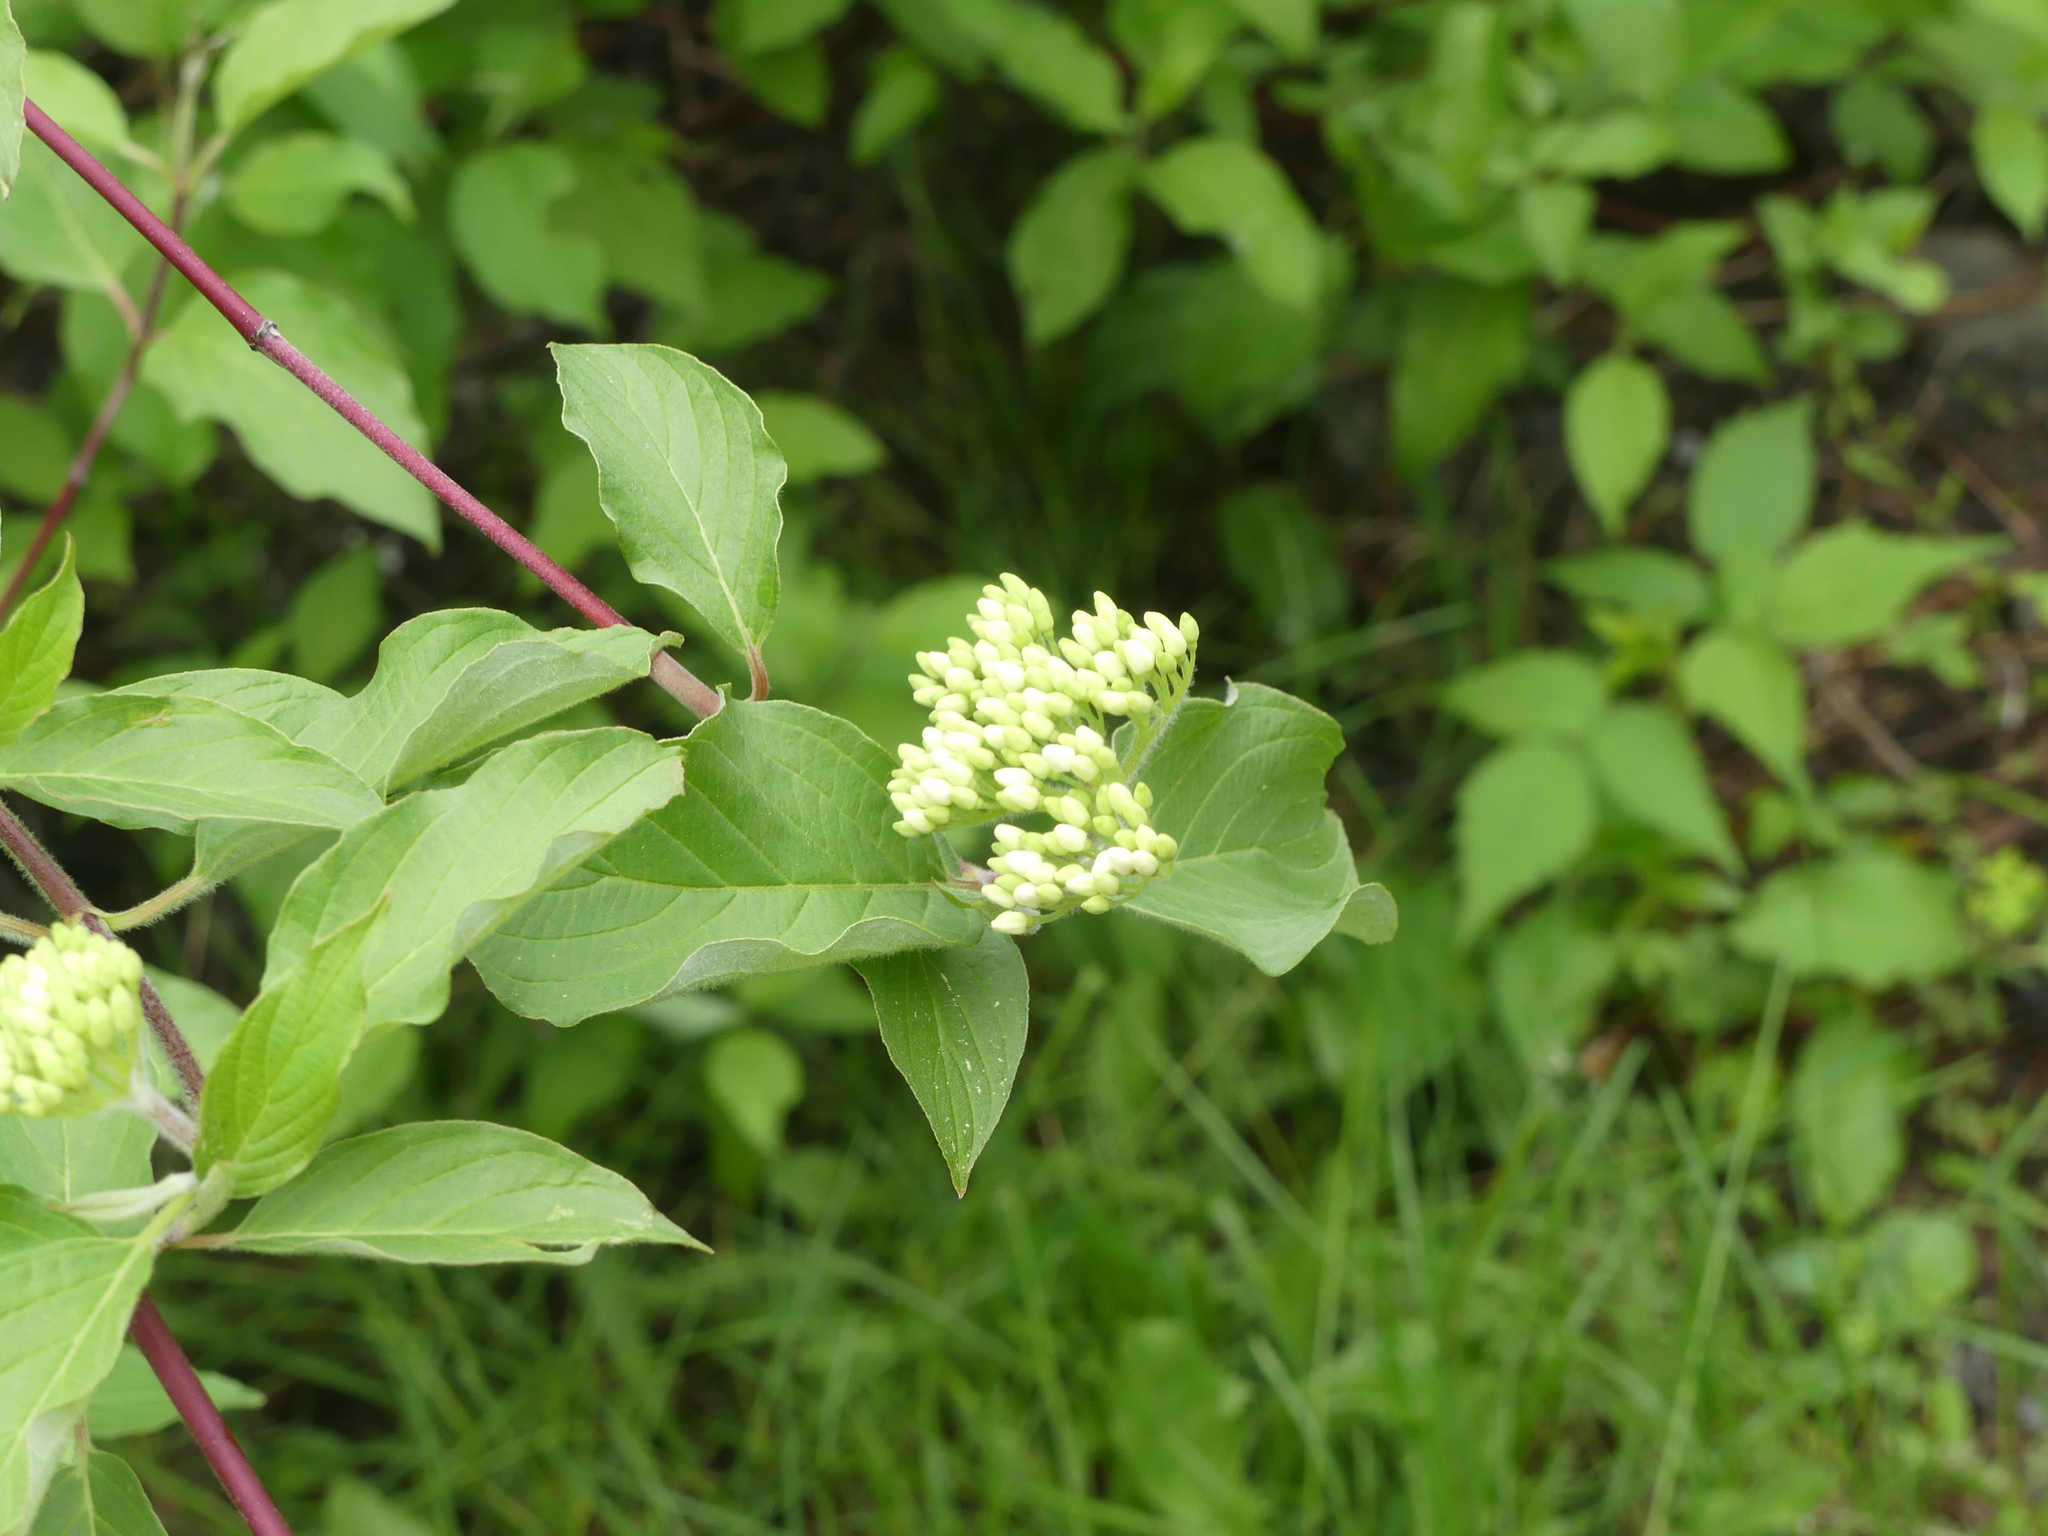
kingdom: Plantae
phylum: Tracheophyta
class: Magnoliopsida
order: Cornales
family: Cornaceae
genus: Cornus
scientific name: Cornus sericea
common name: Red-osier dogwood
